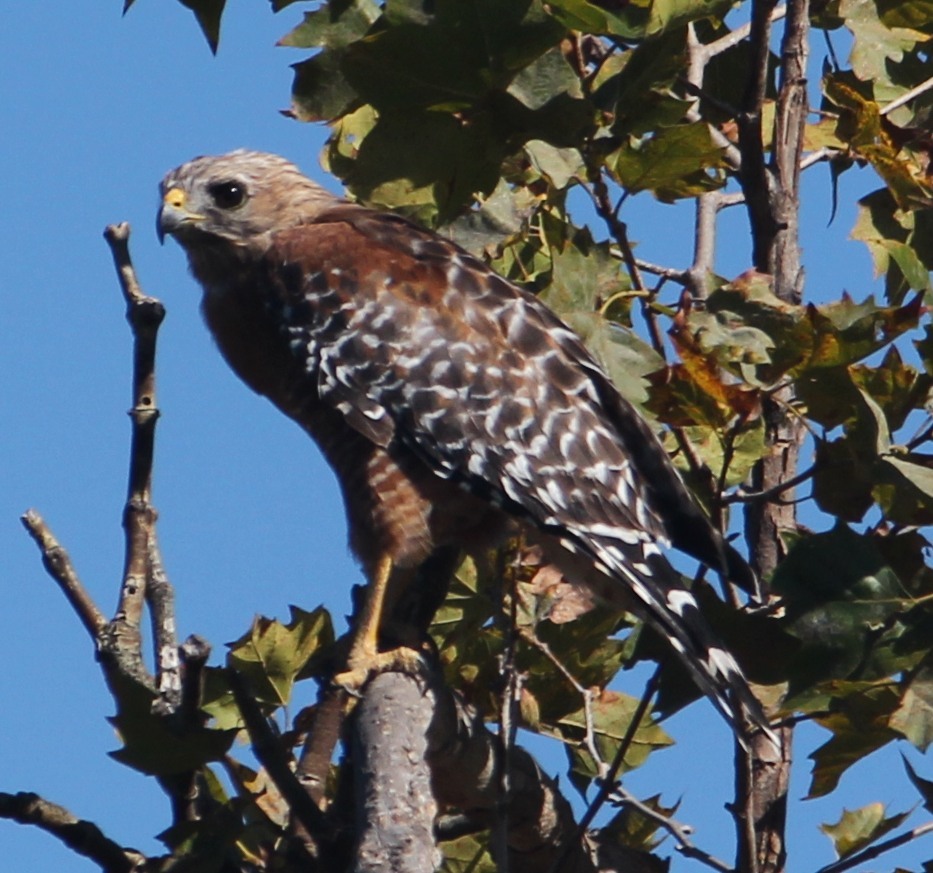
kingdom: Animalia
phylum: Chordata
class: Aves
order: Accipitriformes
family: Accipitridae
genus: Buteo
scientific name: Buteo lineatus
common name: Red-shouldered hawk
